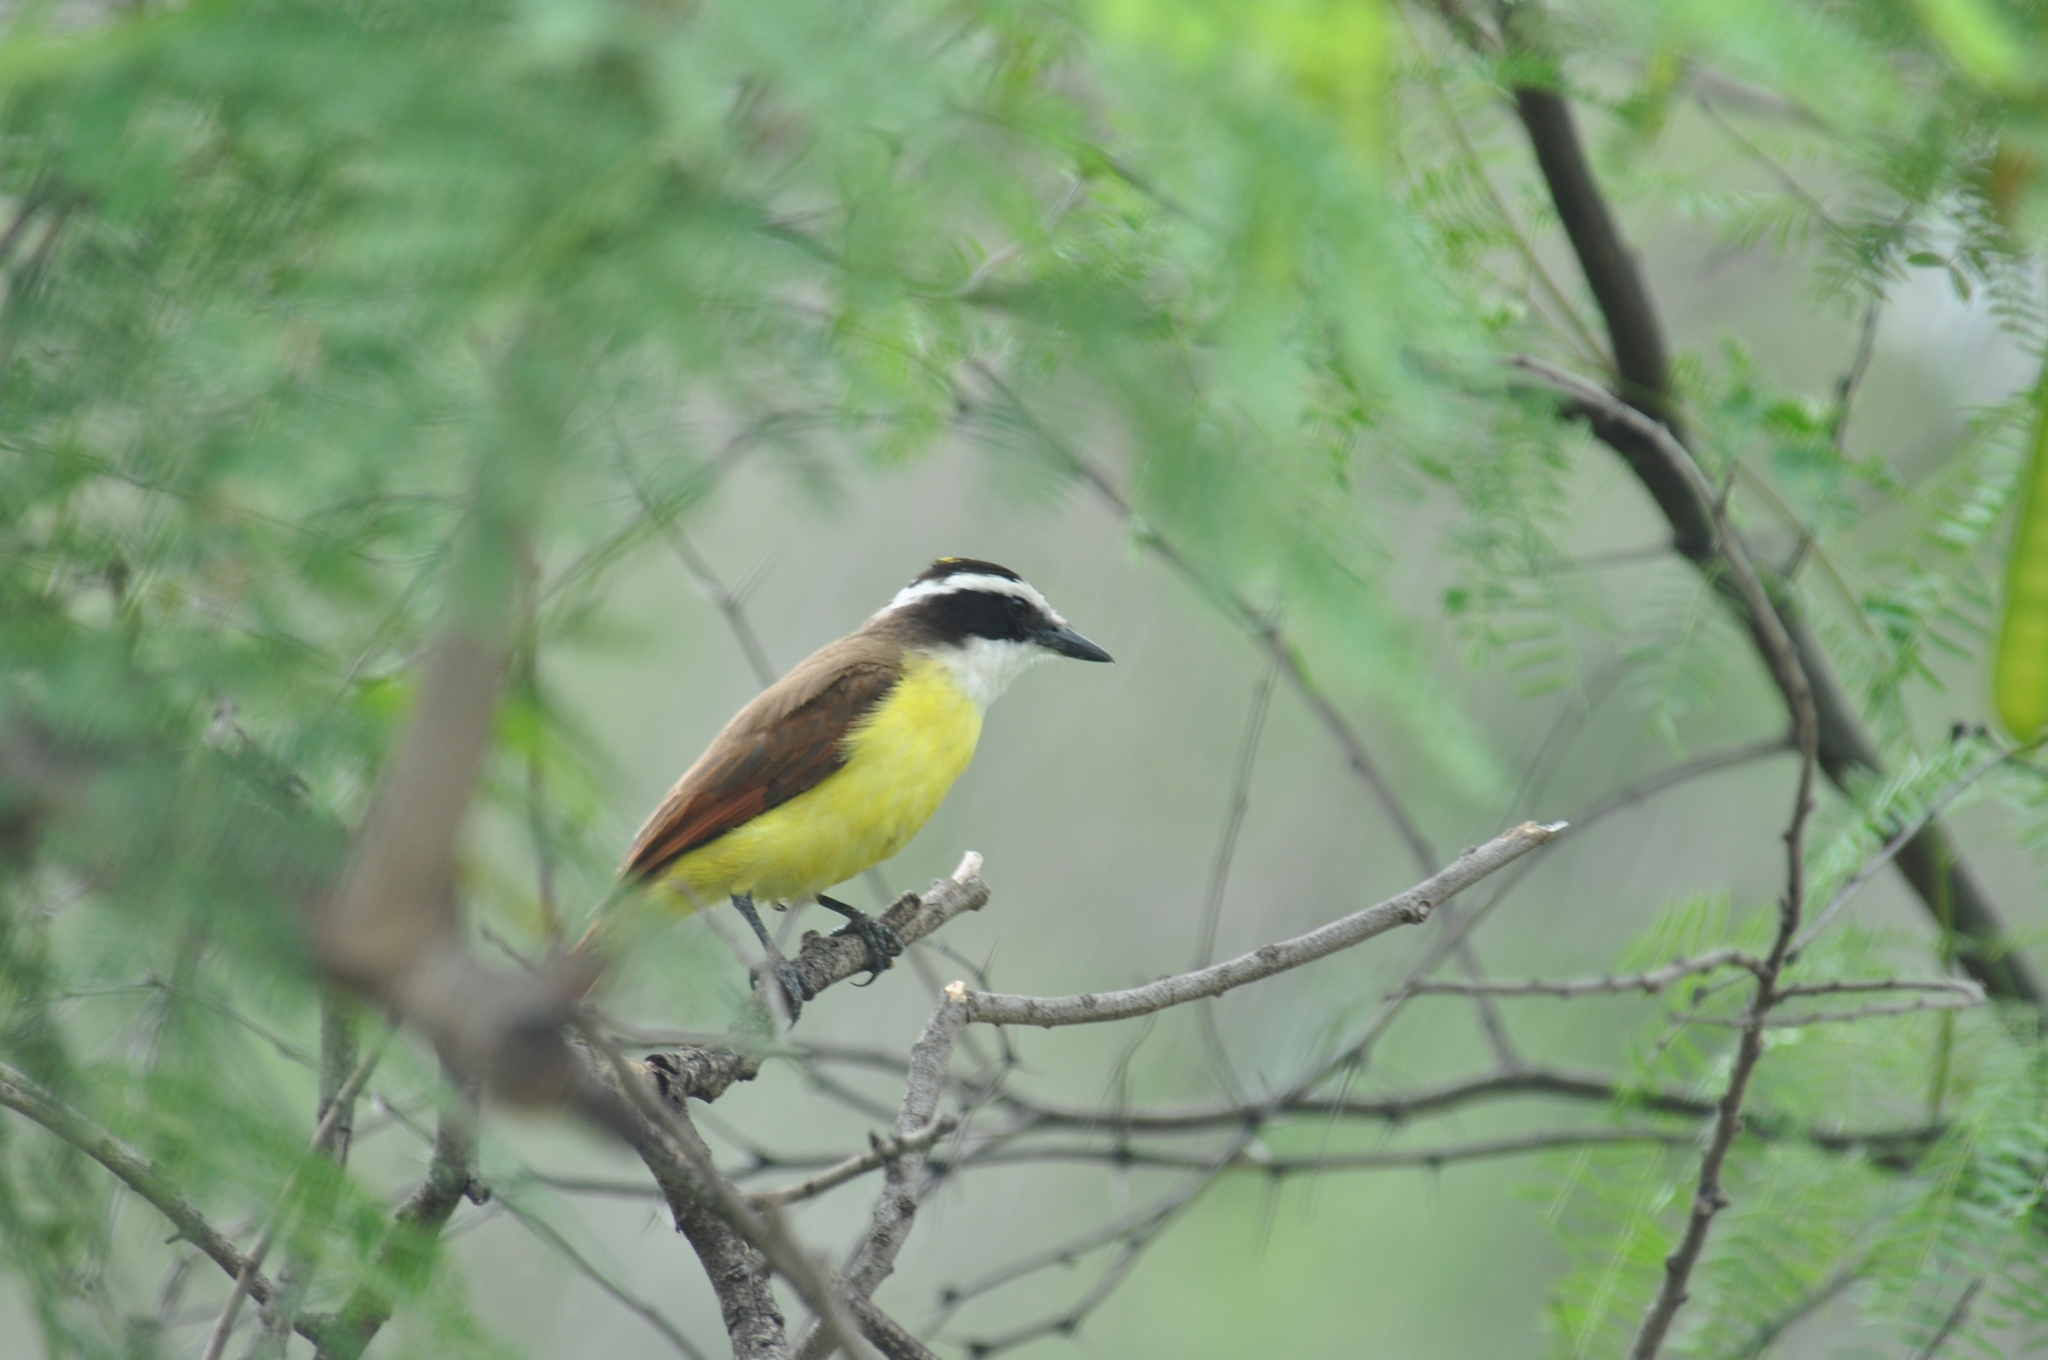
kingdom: Animalia
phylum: Chordata
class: Aves
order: Passeriformes
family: Tyrannidae
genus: Pitangus
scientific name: Pitangus sulphuratus
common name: Great kiskadee
